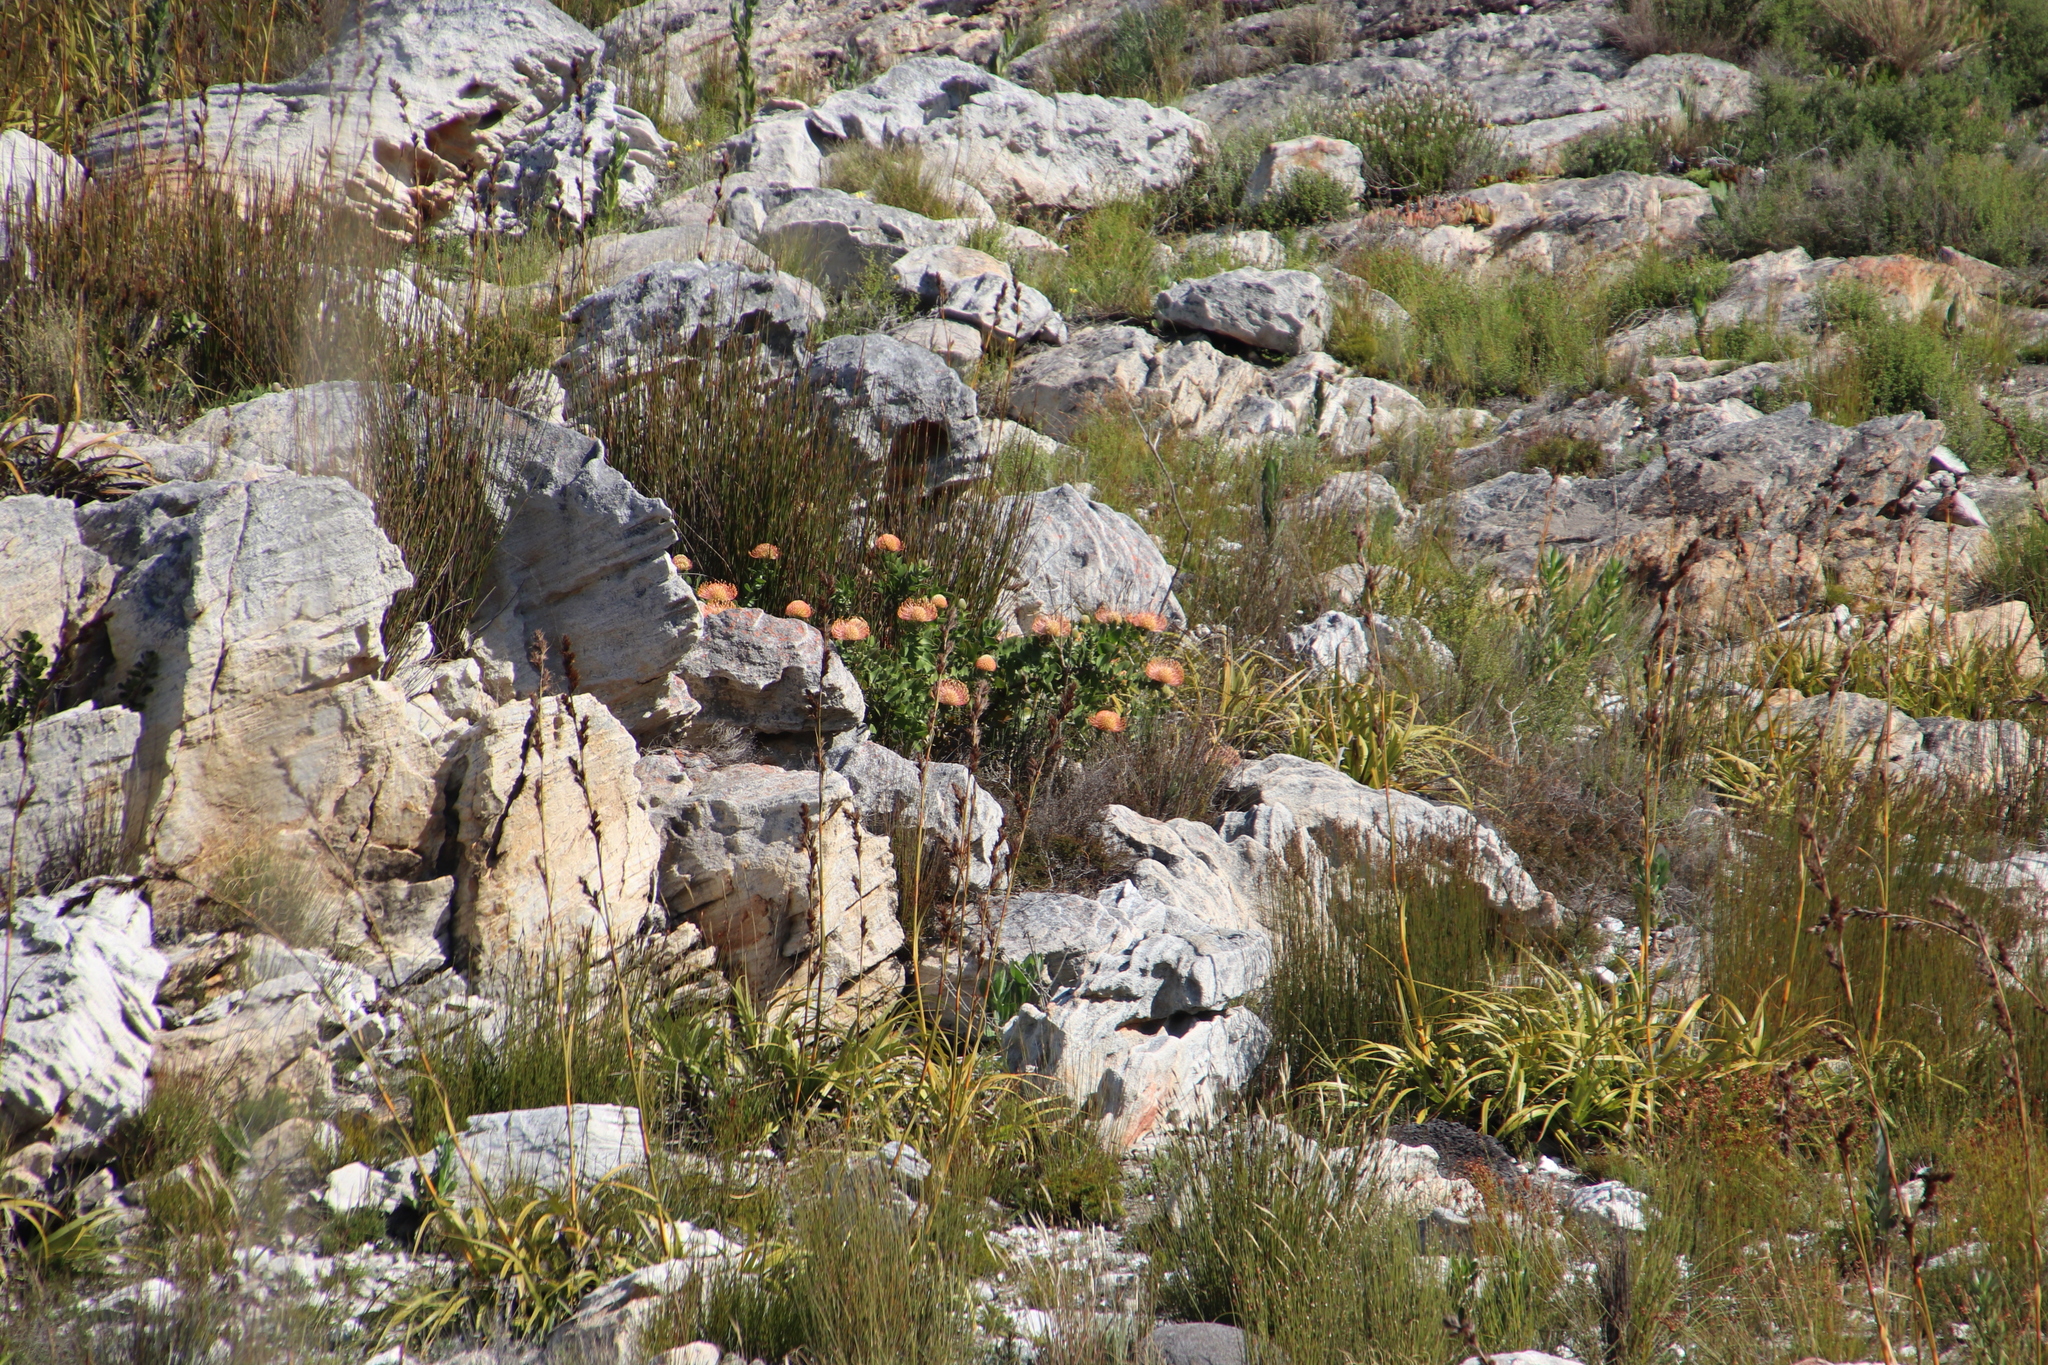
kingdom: Plantae
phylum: Tracheophyta
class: Magnoliopsida
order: Proteales
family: Proteaceae
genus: Leucospermum
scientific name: Leucospermum cordifolium
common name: Red pincushion-protea
